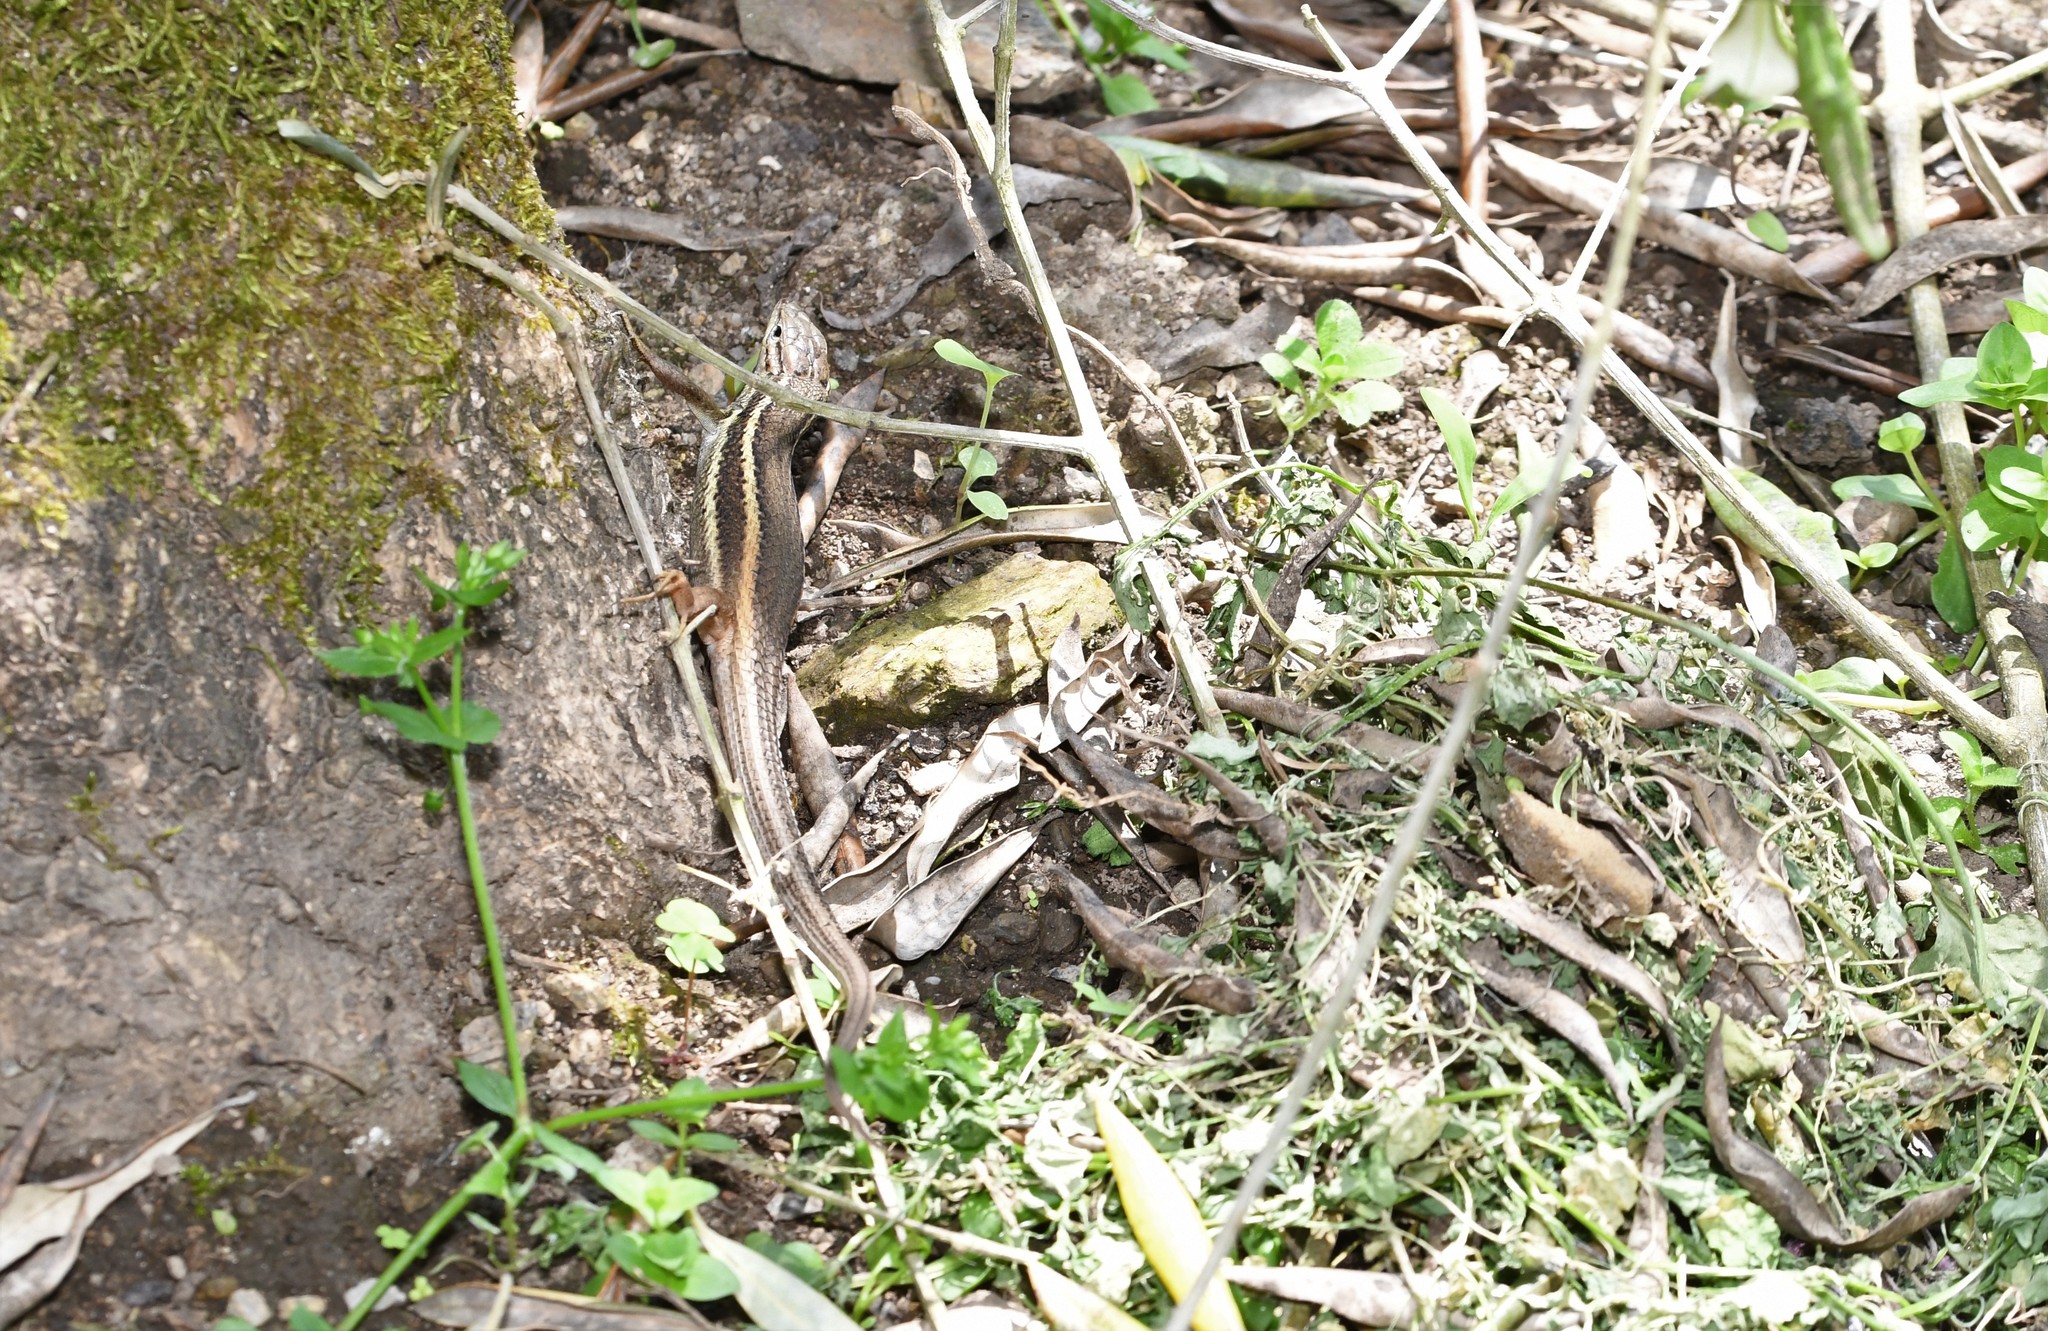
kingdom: Animalia
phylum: Chordata
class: Squamata
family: Lacertidae
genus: Psammodromus
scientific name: Psammodromus algirus
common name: Algerian psammodromus
